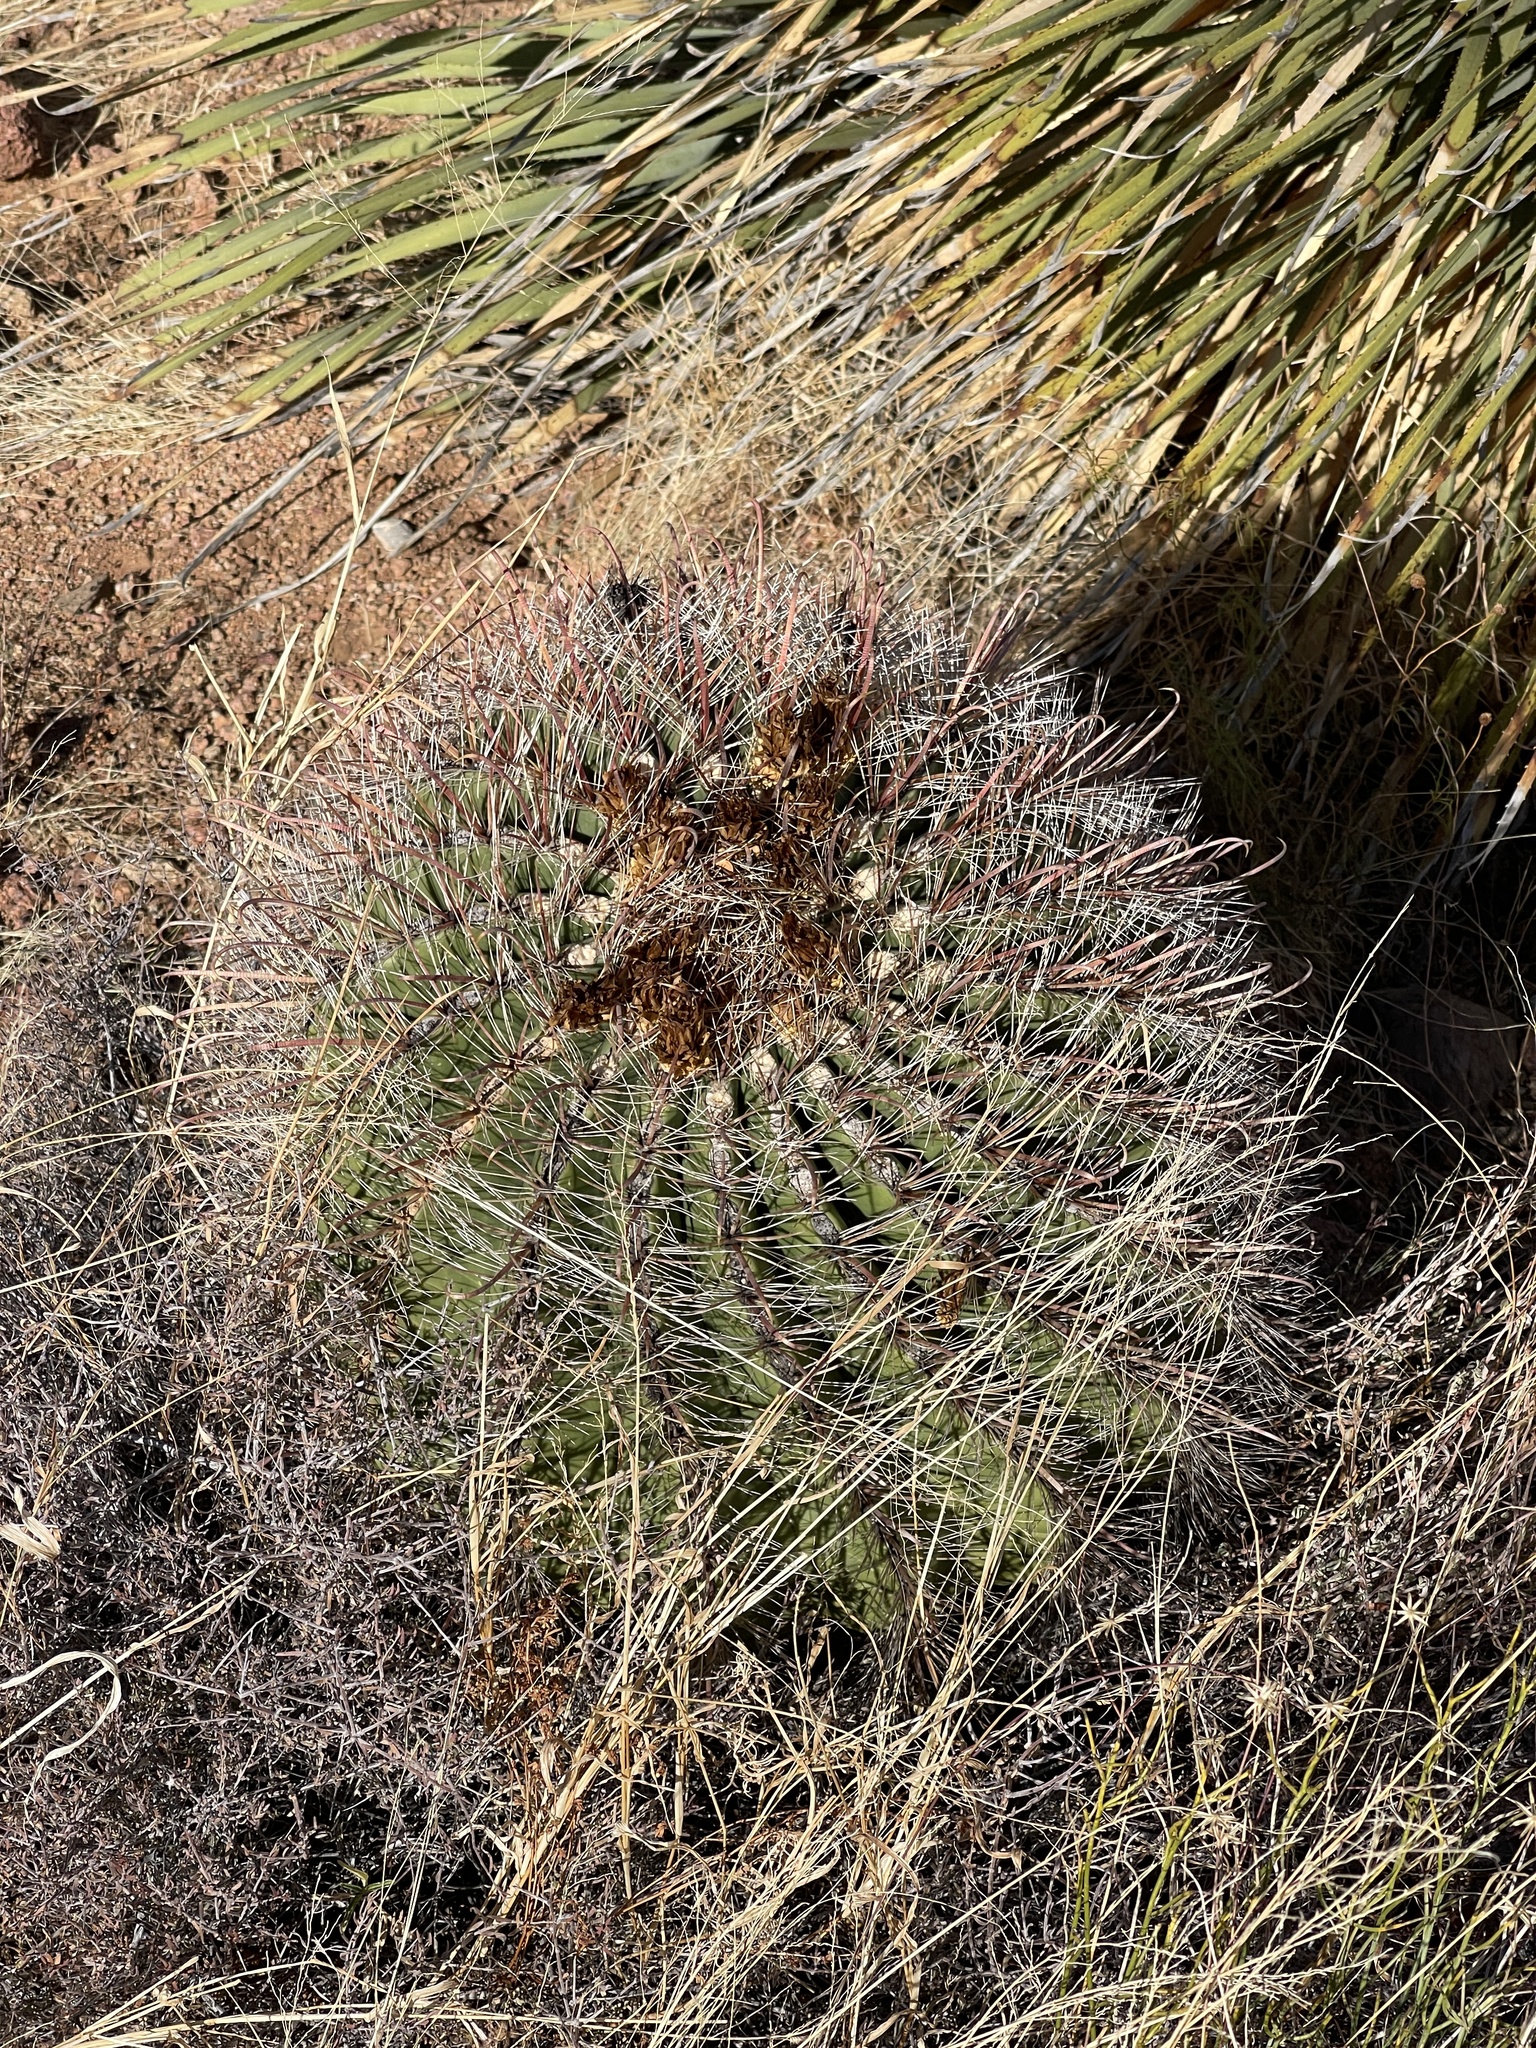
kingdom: Plantae
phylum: Tracheophyta
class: Magnoliopsida
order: Caryophyllales
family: Cactaceae
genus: Ferocactus
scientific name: Ferocactus wislizeni
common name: Candy barrel cactus
